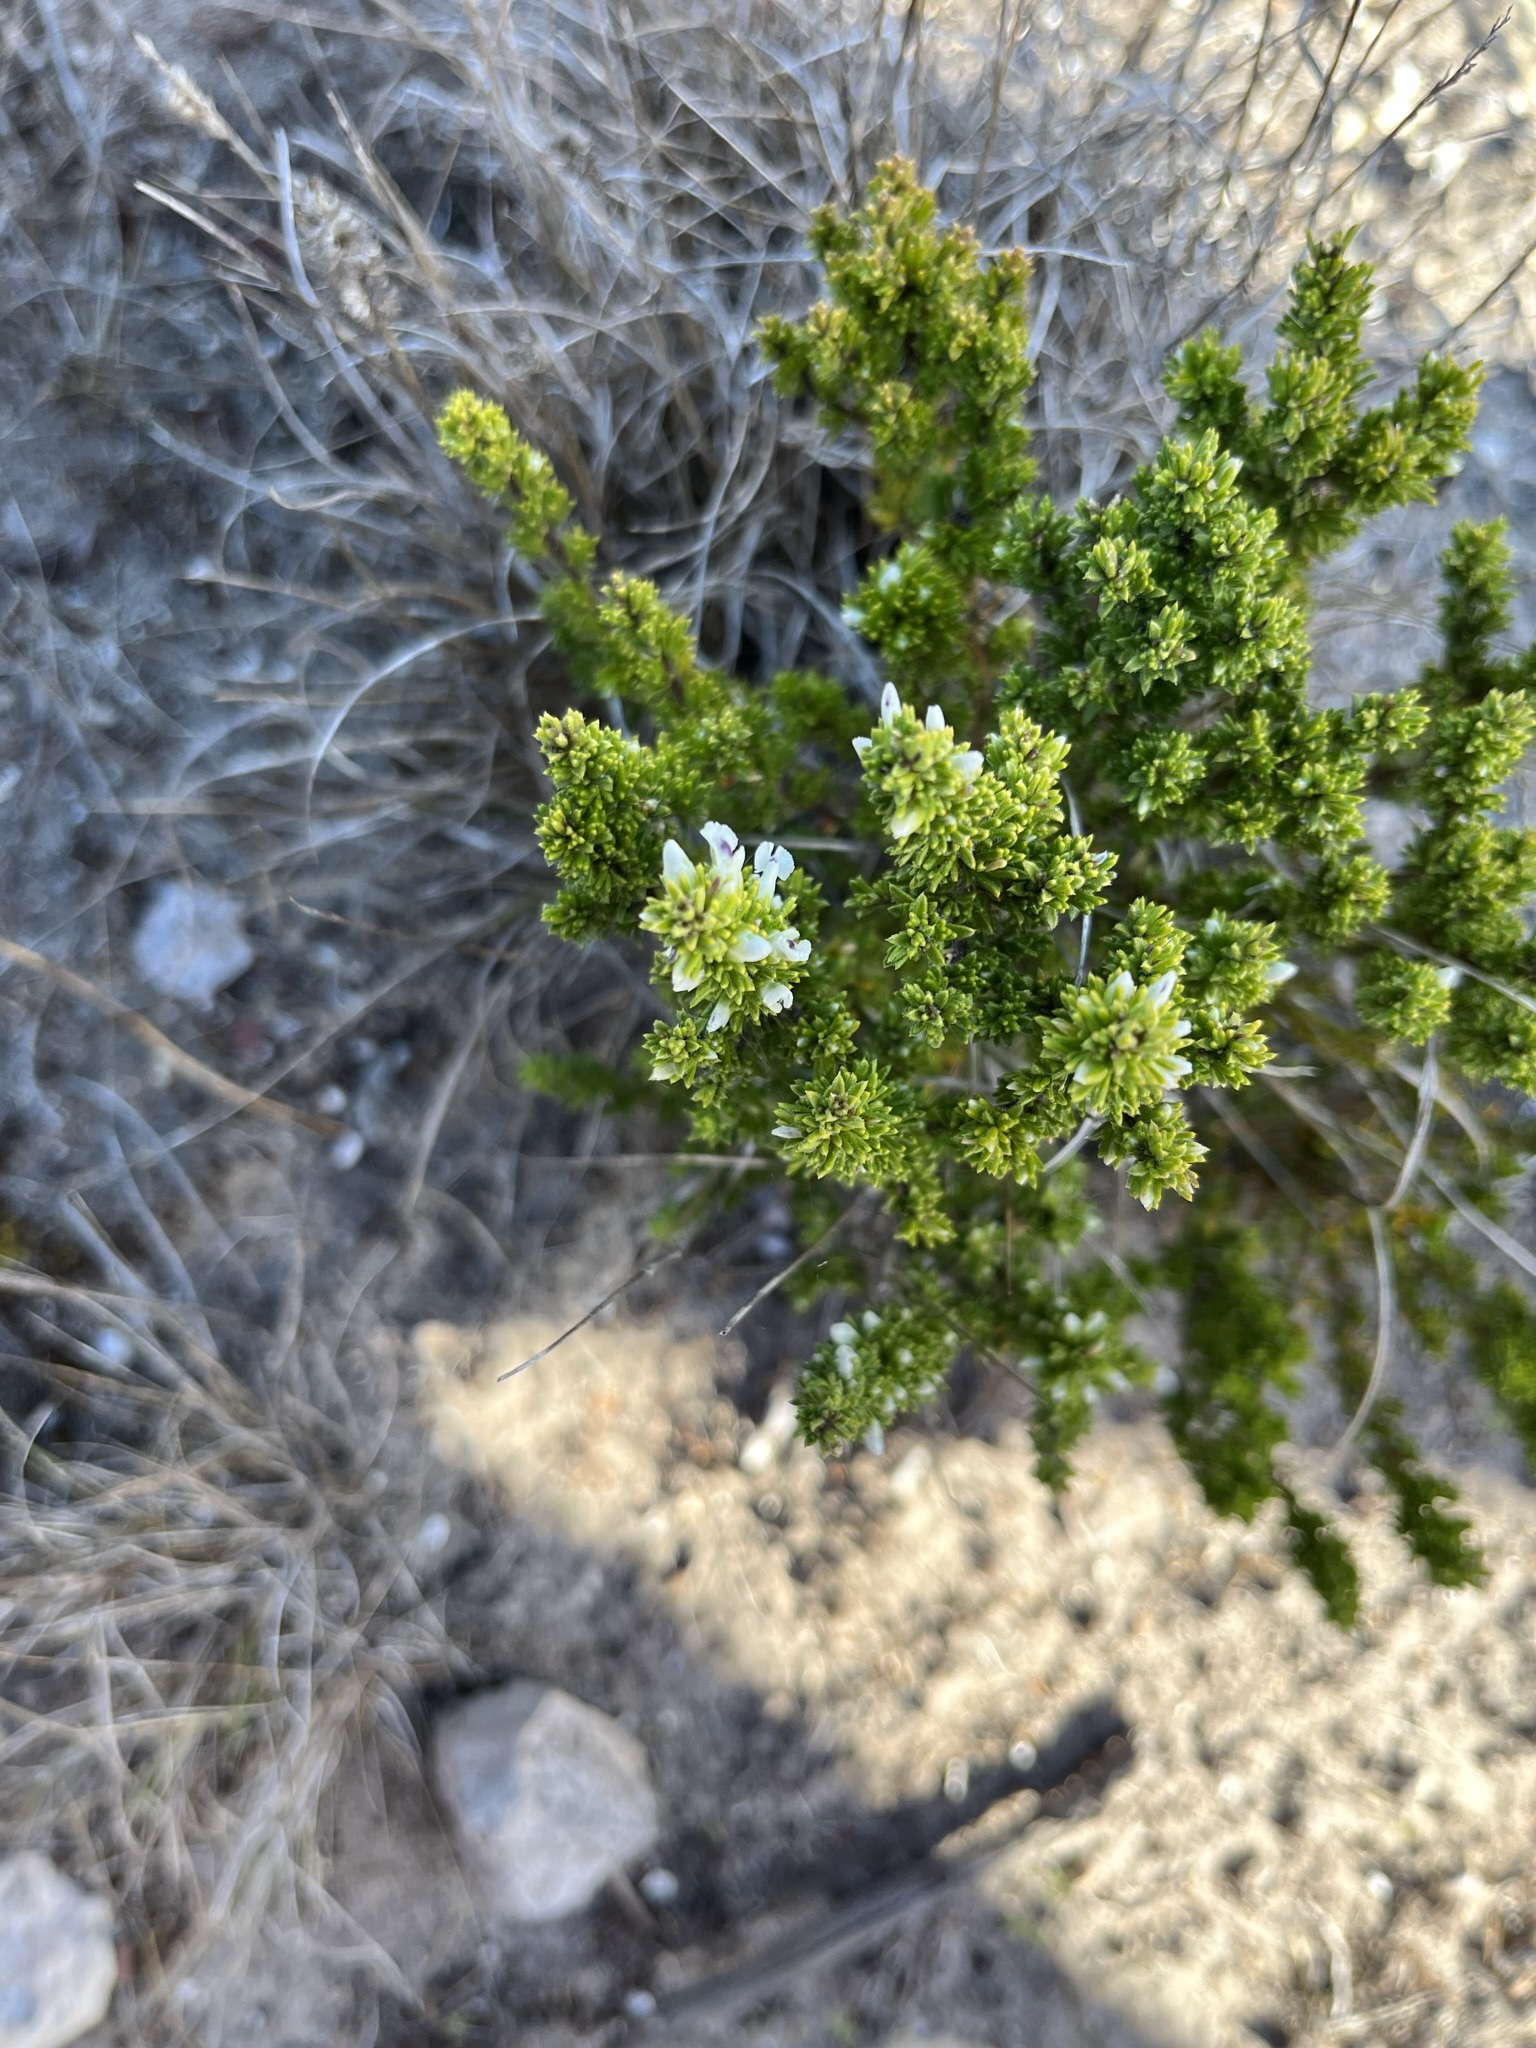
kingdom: Plantae
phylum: Tracheophyta
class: Magnoliopsida
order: Fabales
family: Polygalaceae
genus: Muraltia
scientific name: Muraltia pappeana
